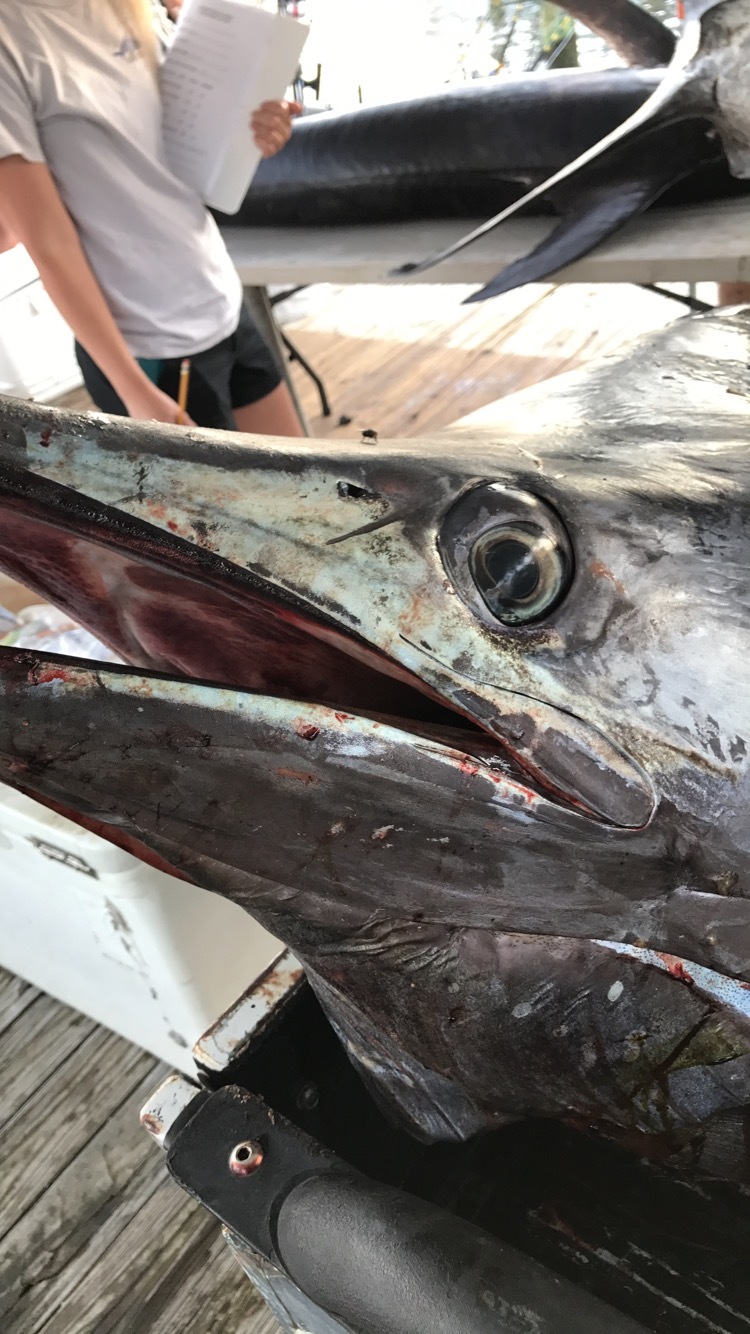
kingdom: Animalia
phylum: Chordata
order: Perciformes
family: Istiophoridae
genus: Makaira
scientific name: Makaira nigricans
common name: Blue marlin
